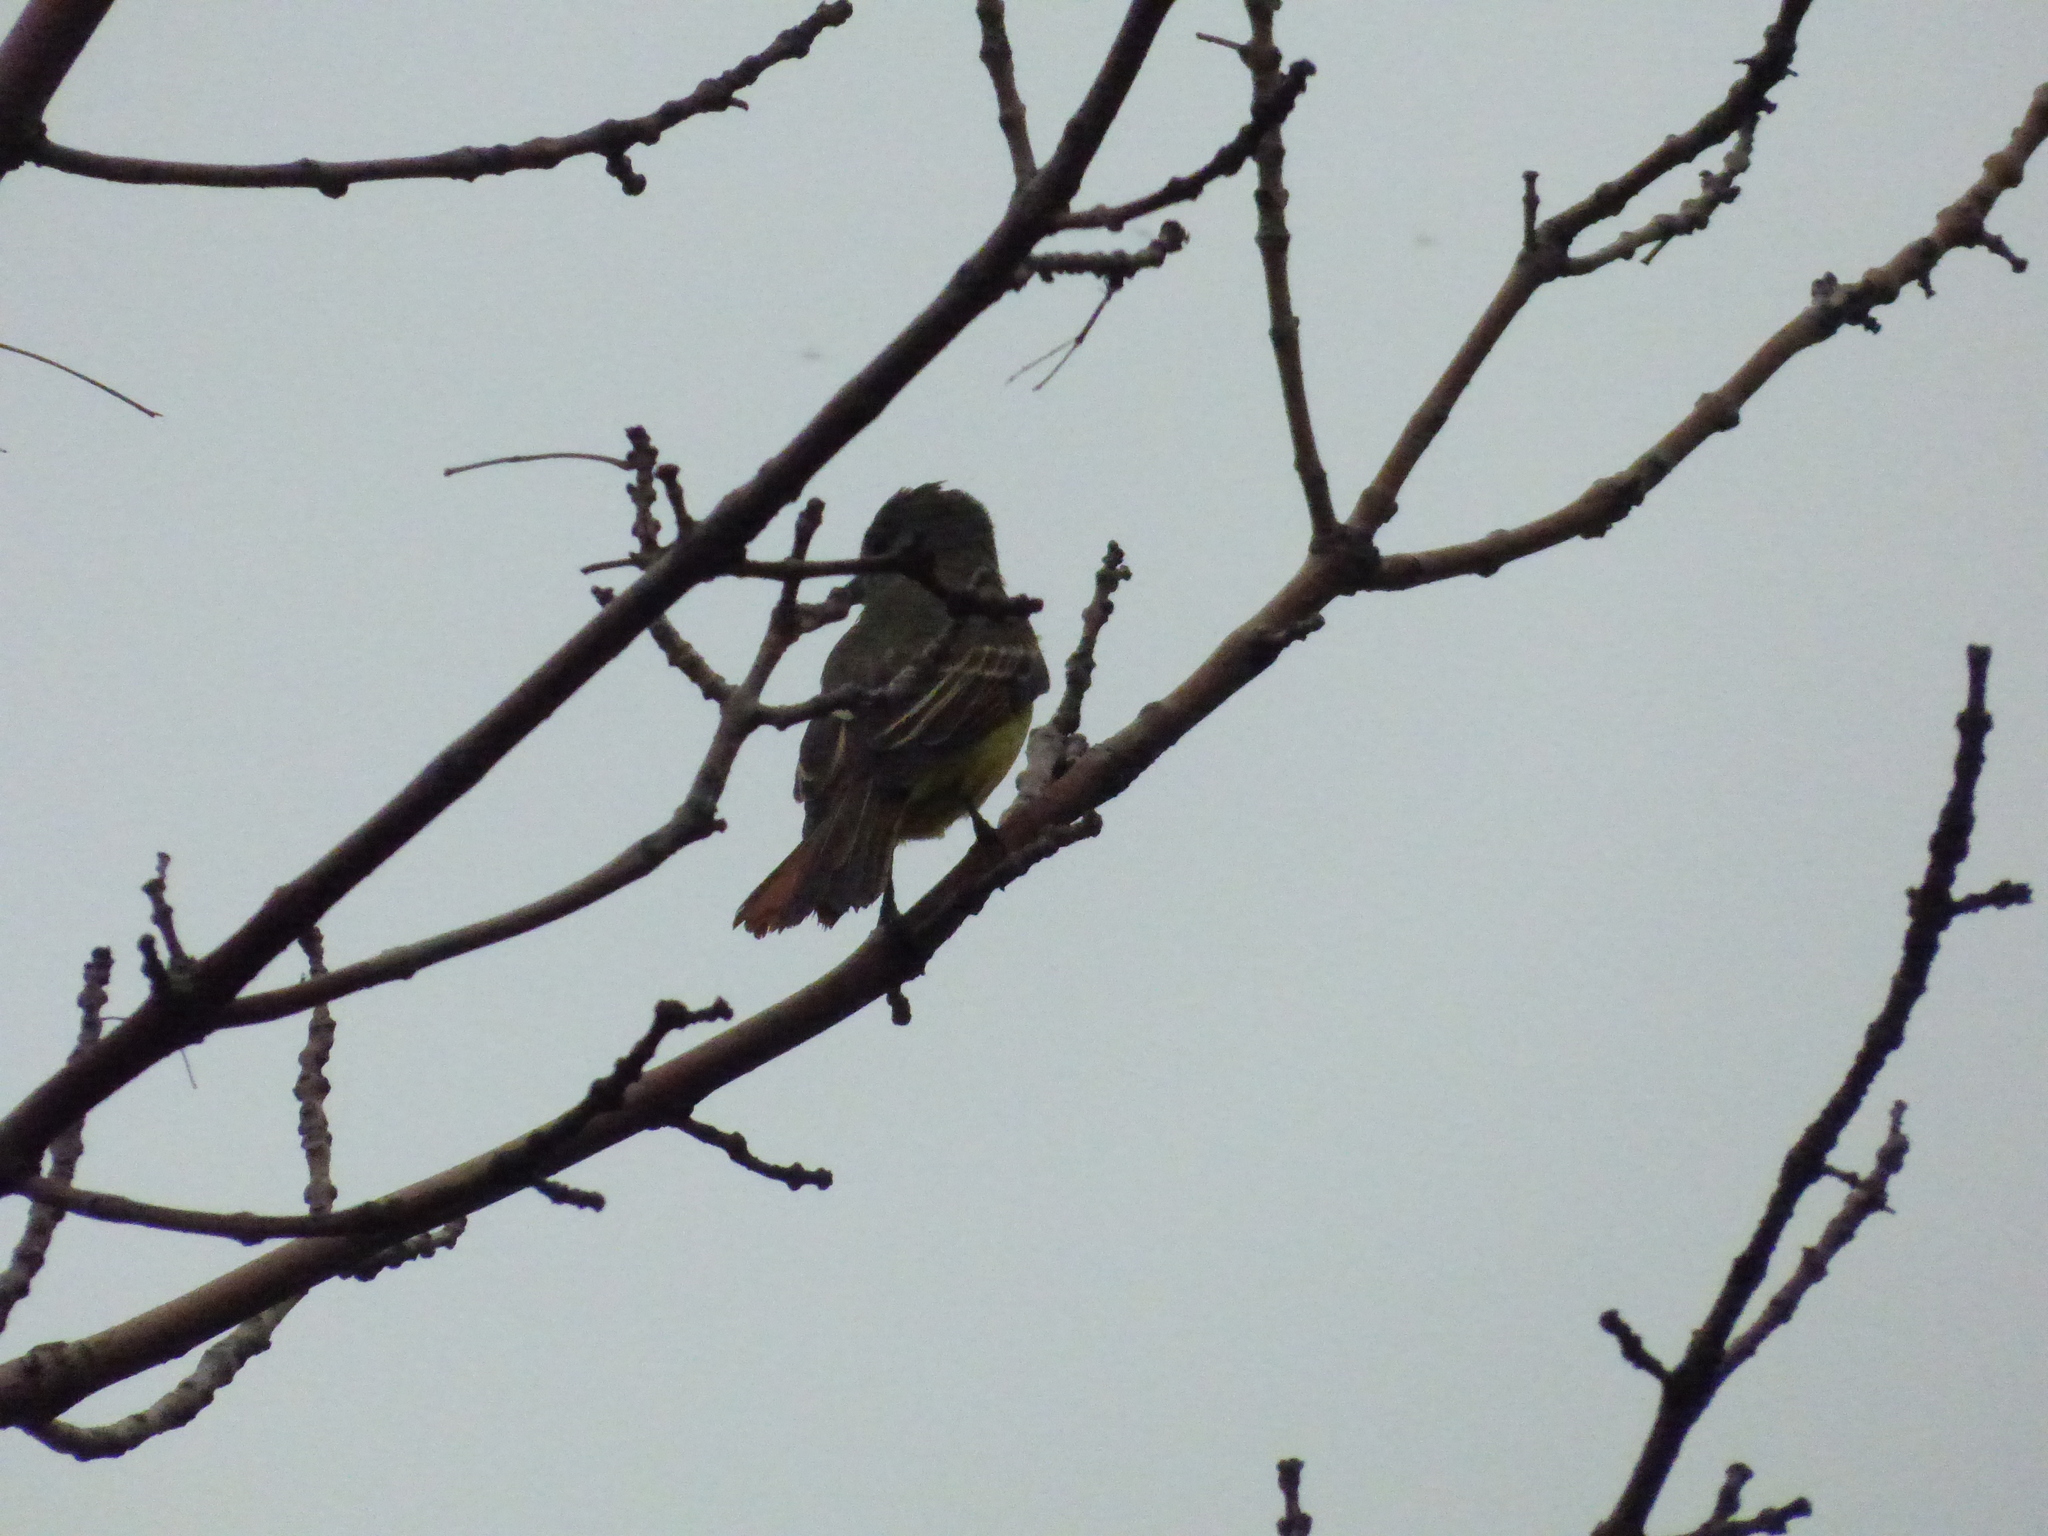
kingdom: Animalia
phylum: Chordata
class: Aves
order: Passeriformes
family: Tyrannidae
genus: Myiarchus
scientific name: Myiarchus crinitus
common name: Great crested flycatcher
